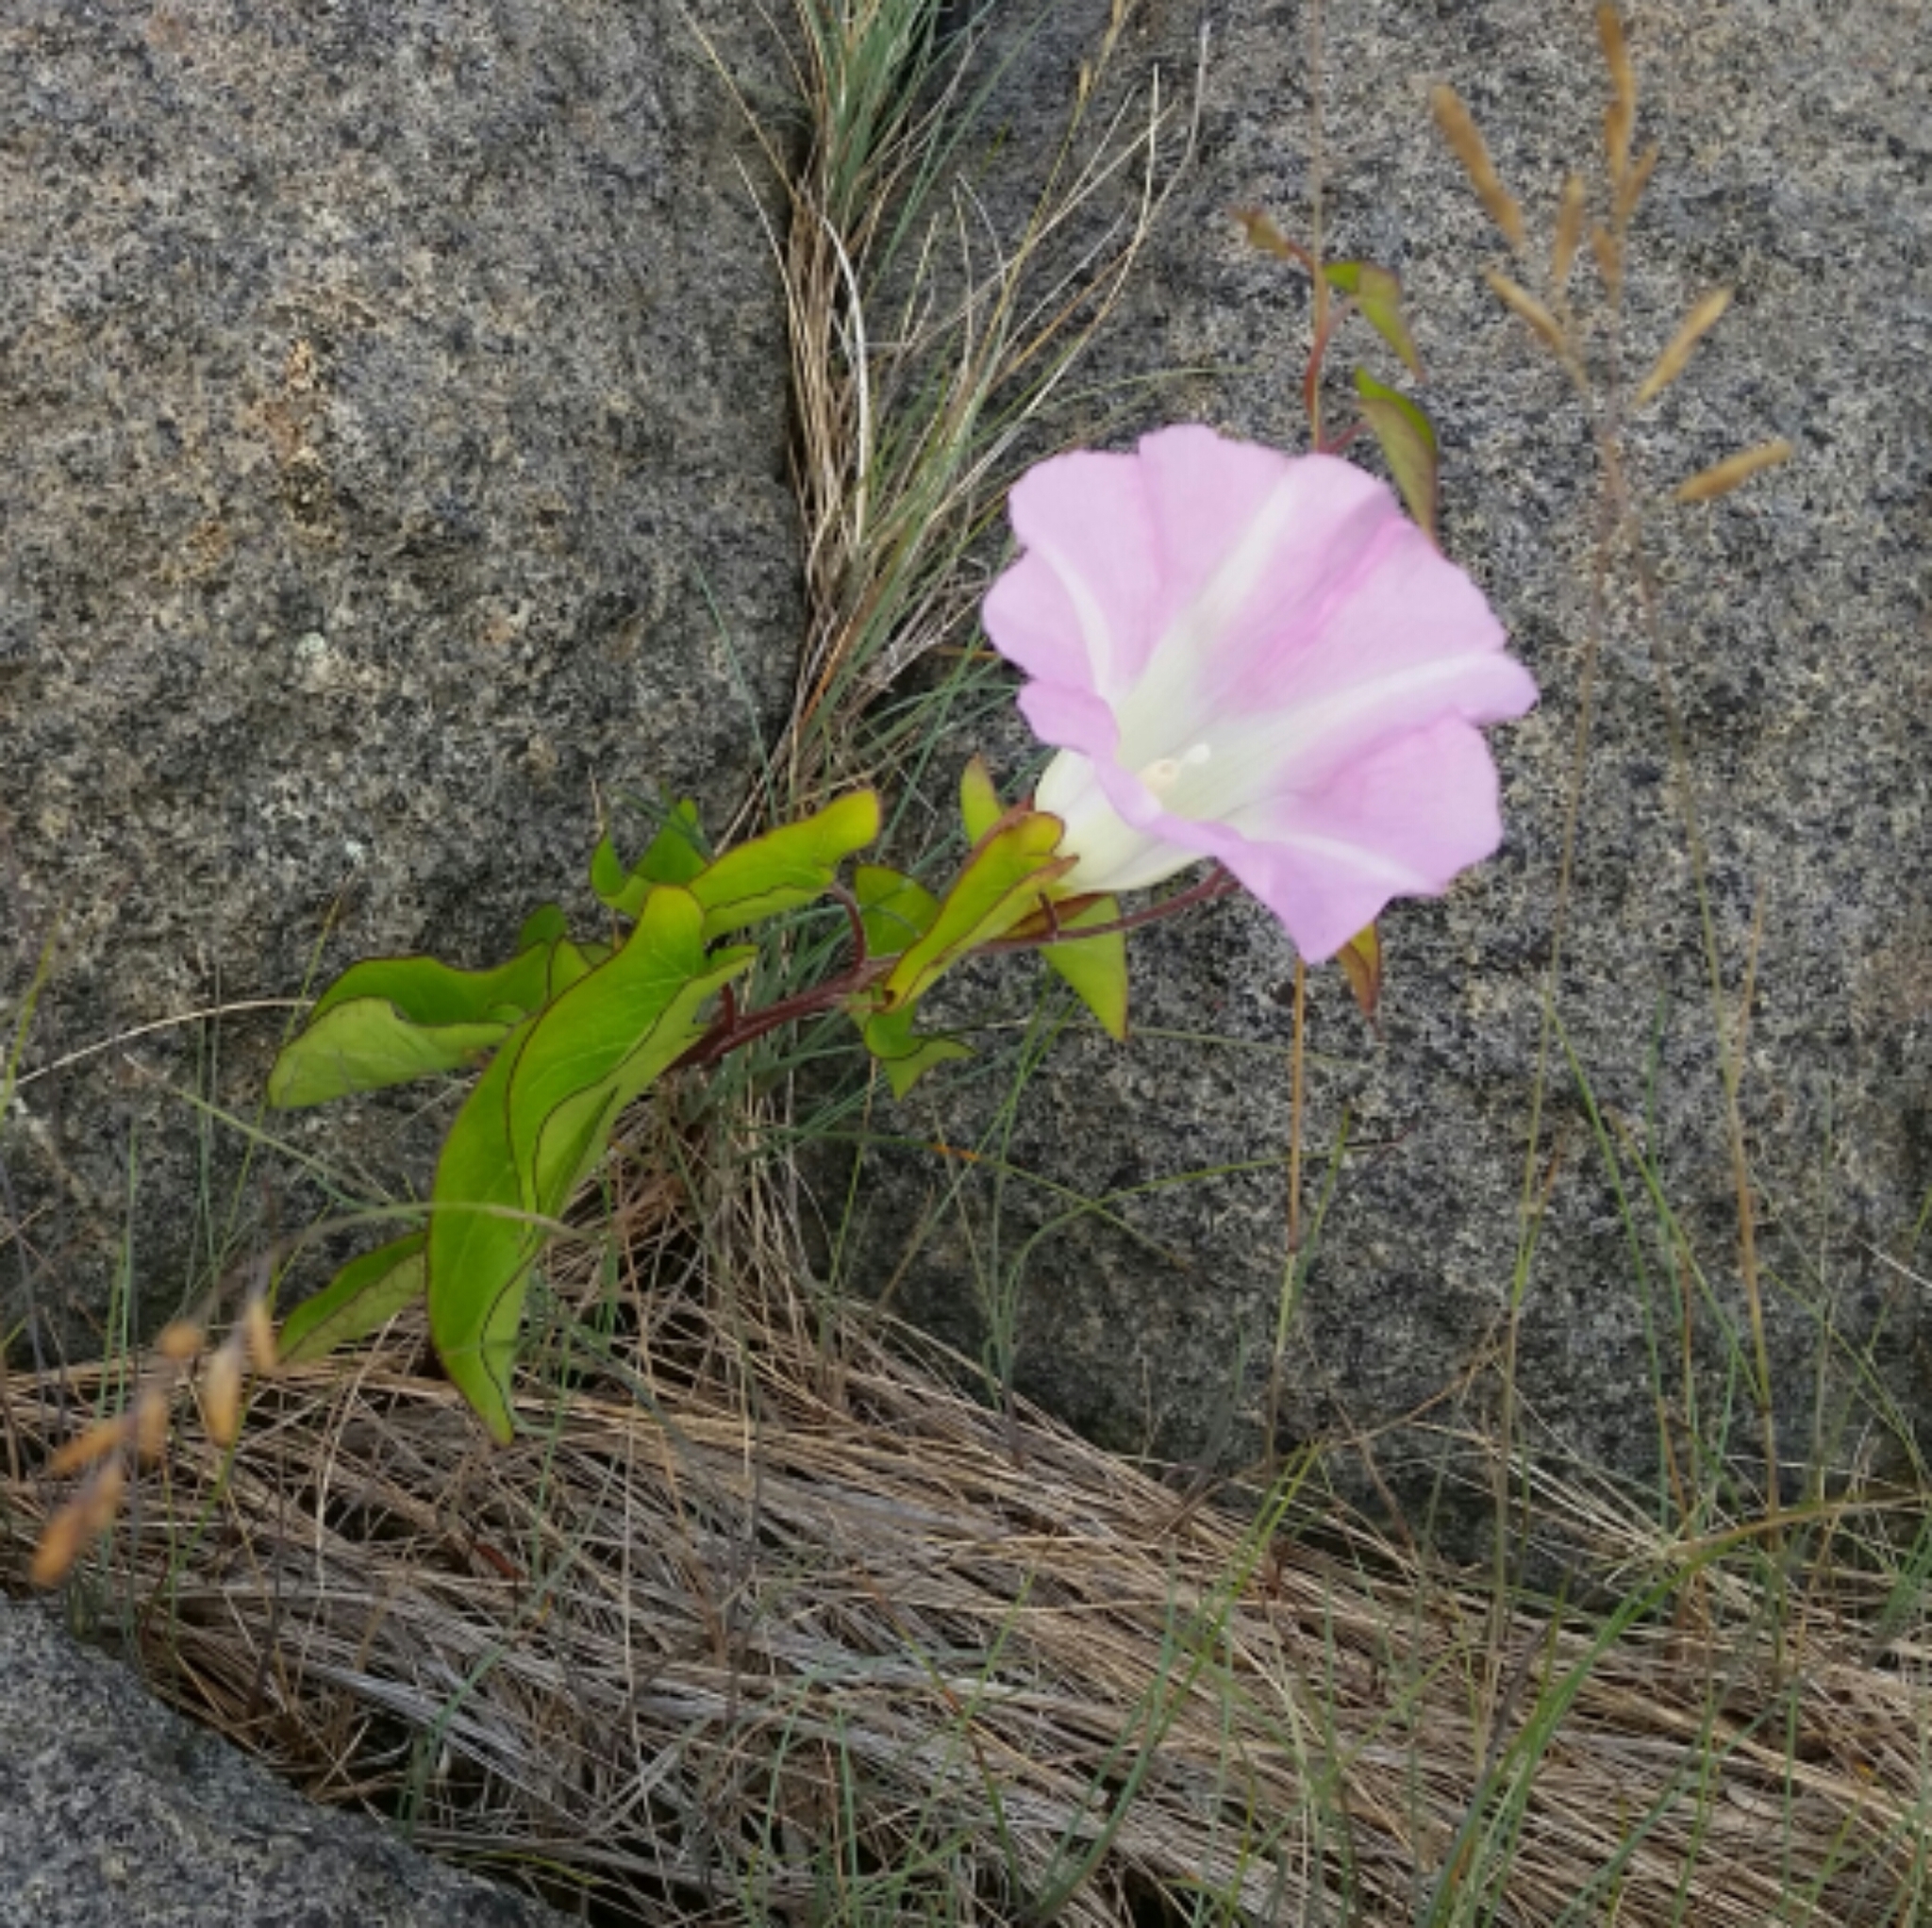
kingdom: Plantae
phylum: Tracheophyta
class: Magnoliopsida
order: Solanales
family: Convolvulaceae
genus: Convolvulus
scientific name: Convolvulus arvensis
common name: Field bindweed
